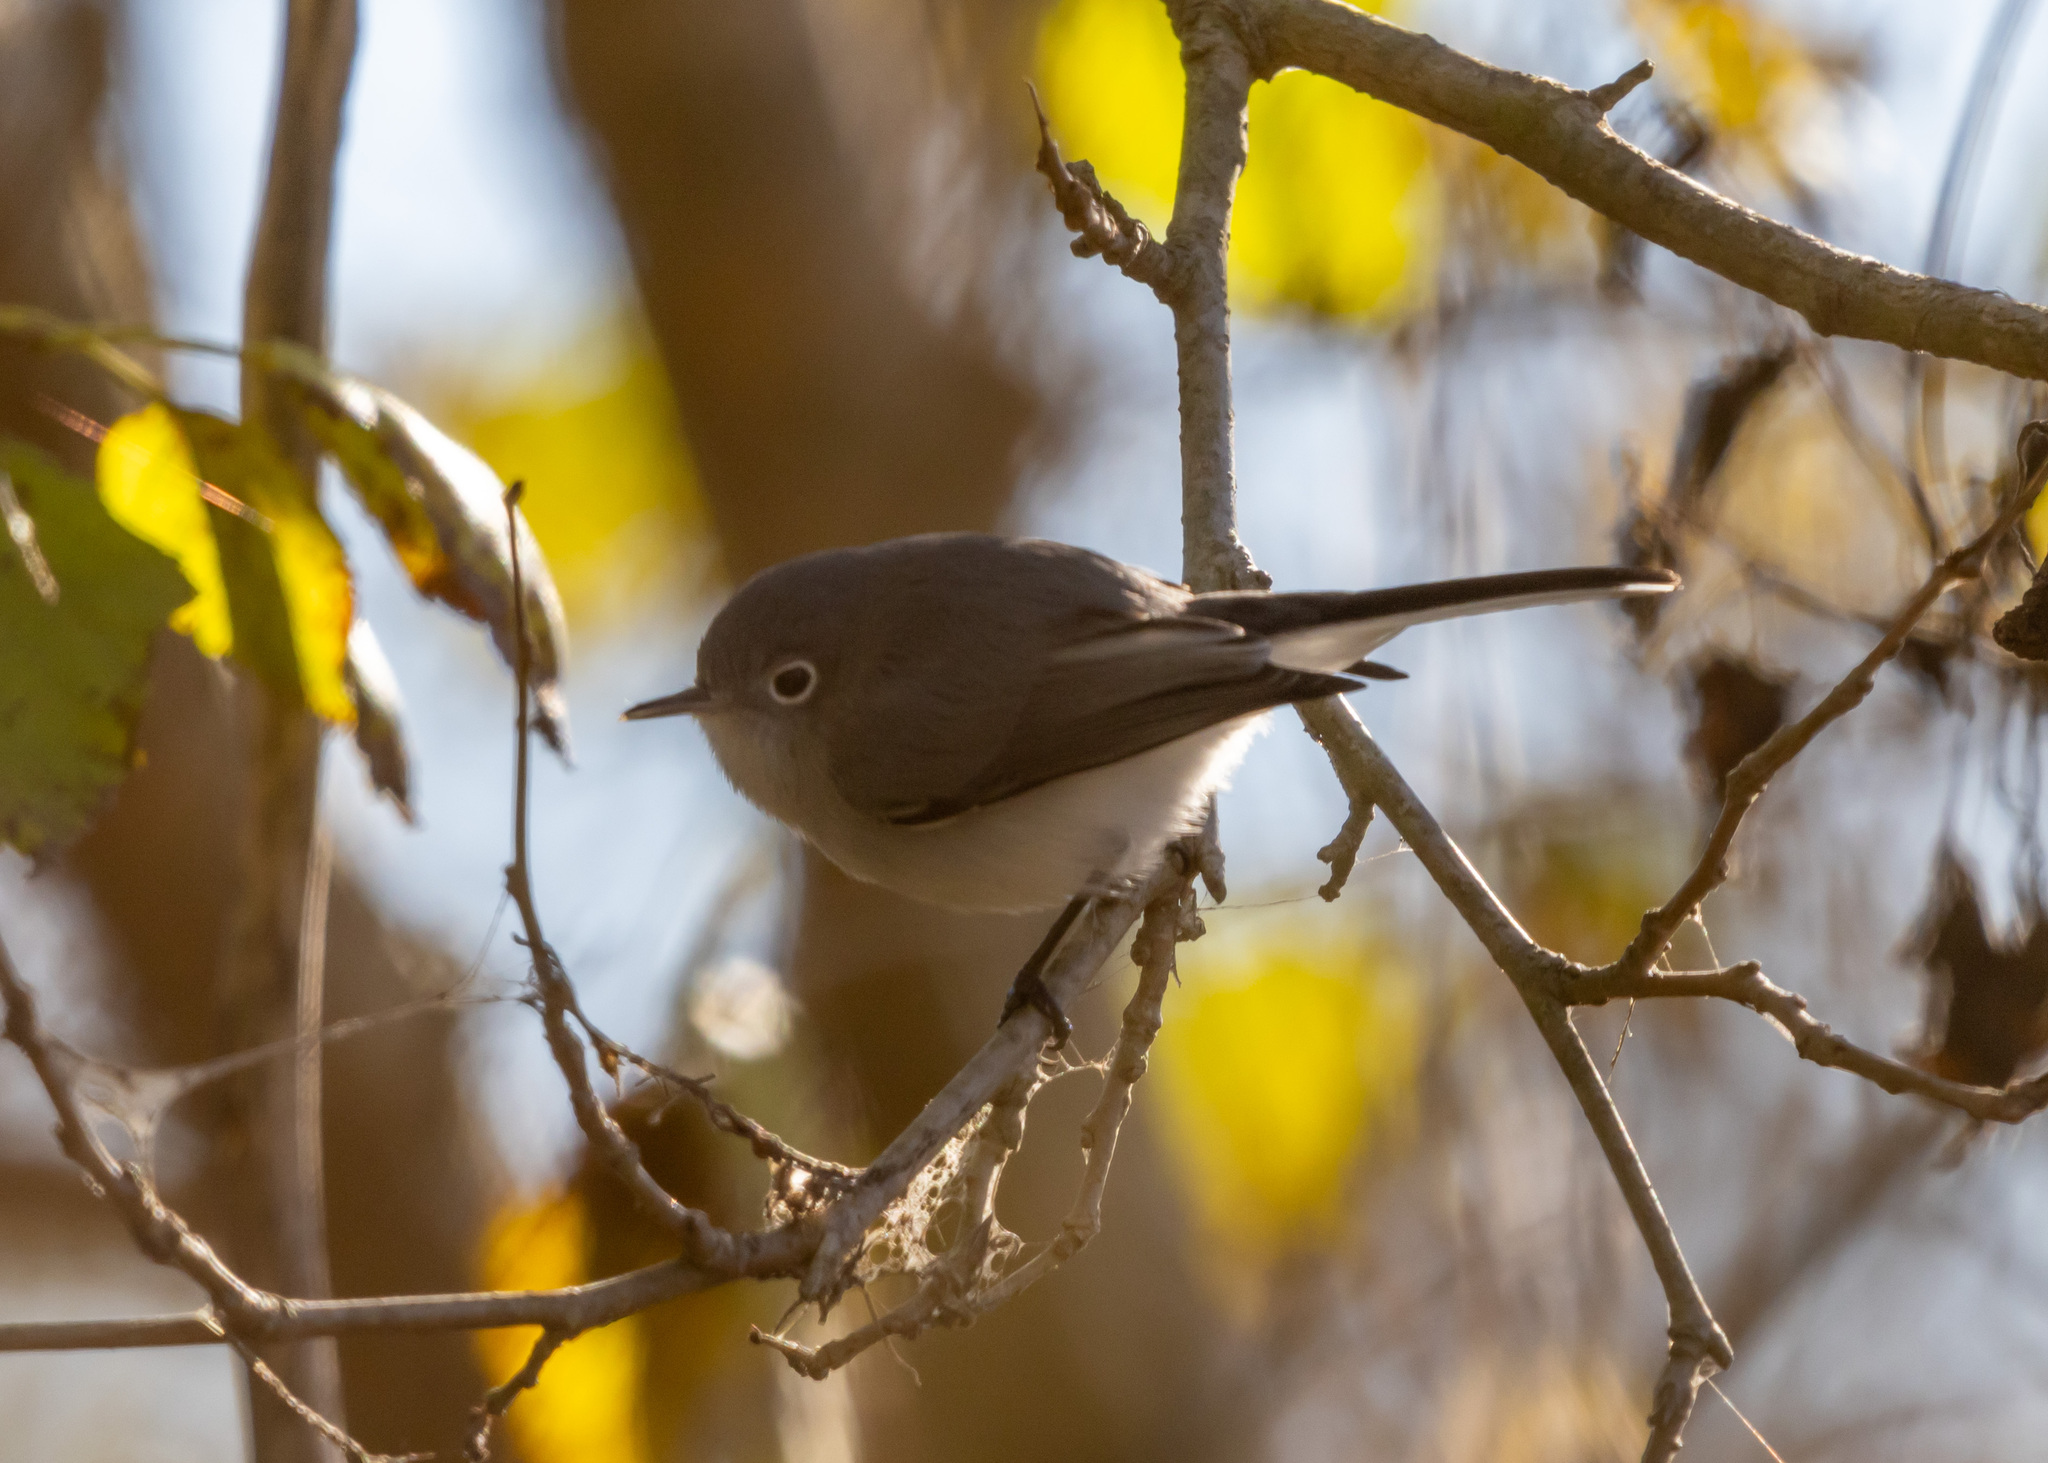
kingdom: Animalia
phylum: Chordata
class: Aves
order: Passeriformes
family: Polioptilidae
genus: Polioptila
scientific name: Polioptila caerulea
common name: Blue-gray gnatcatcher
